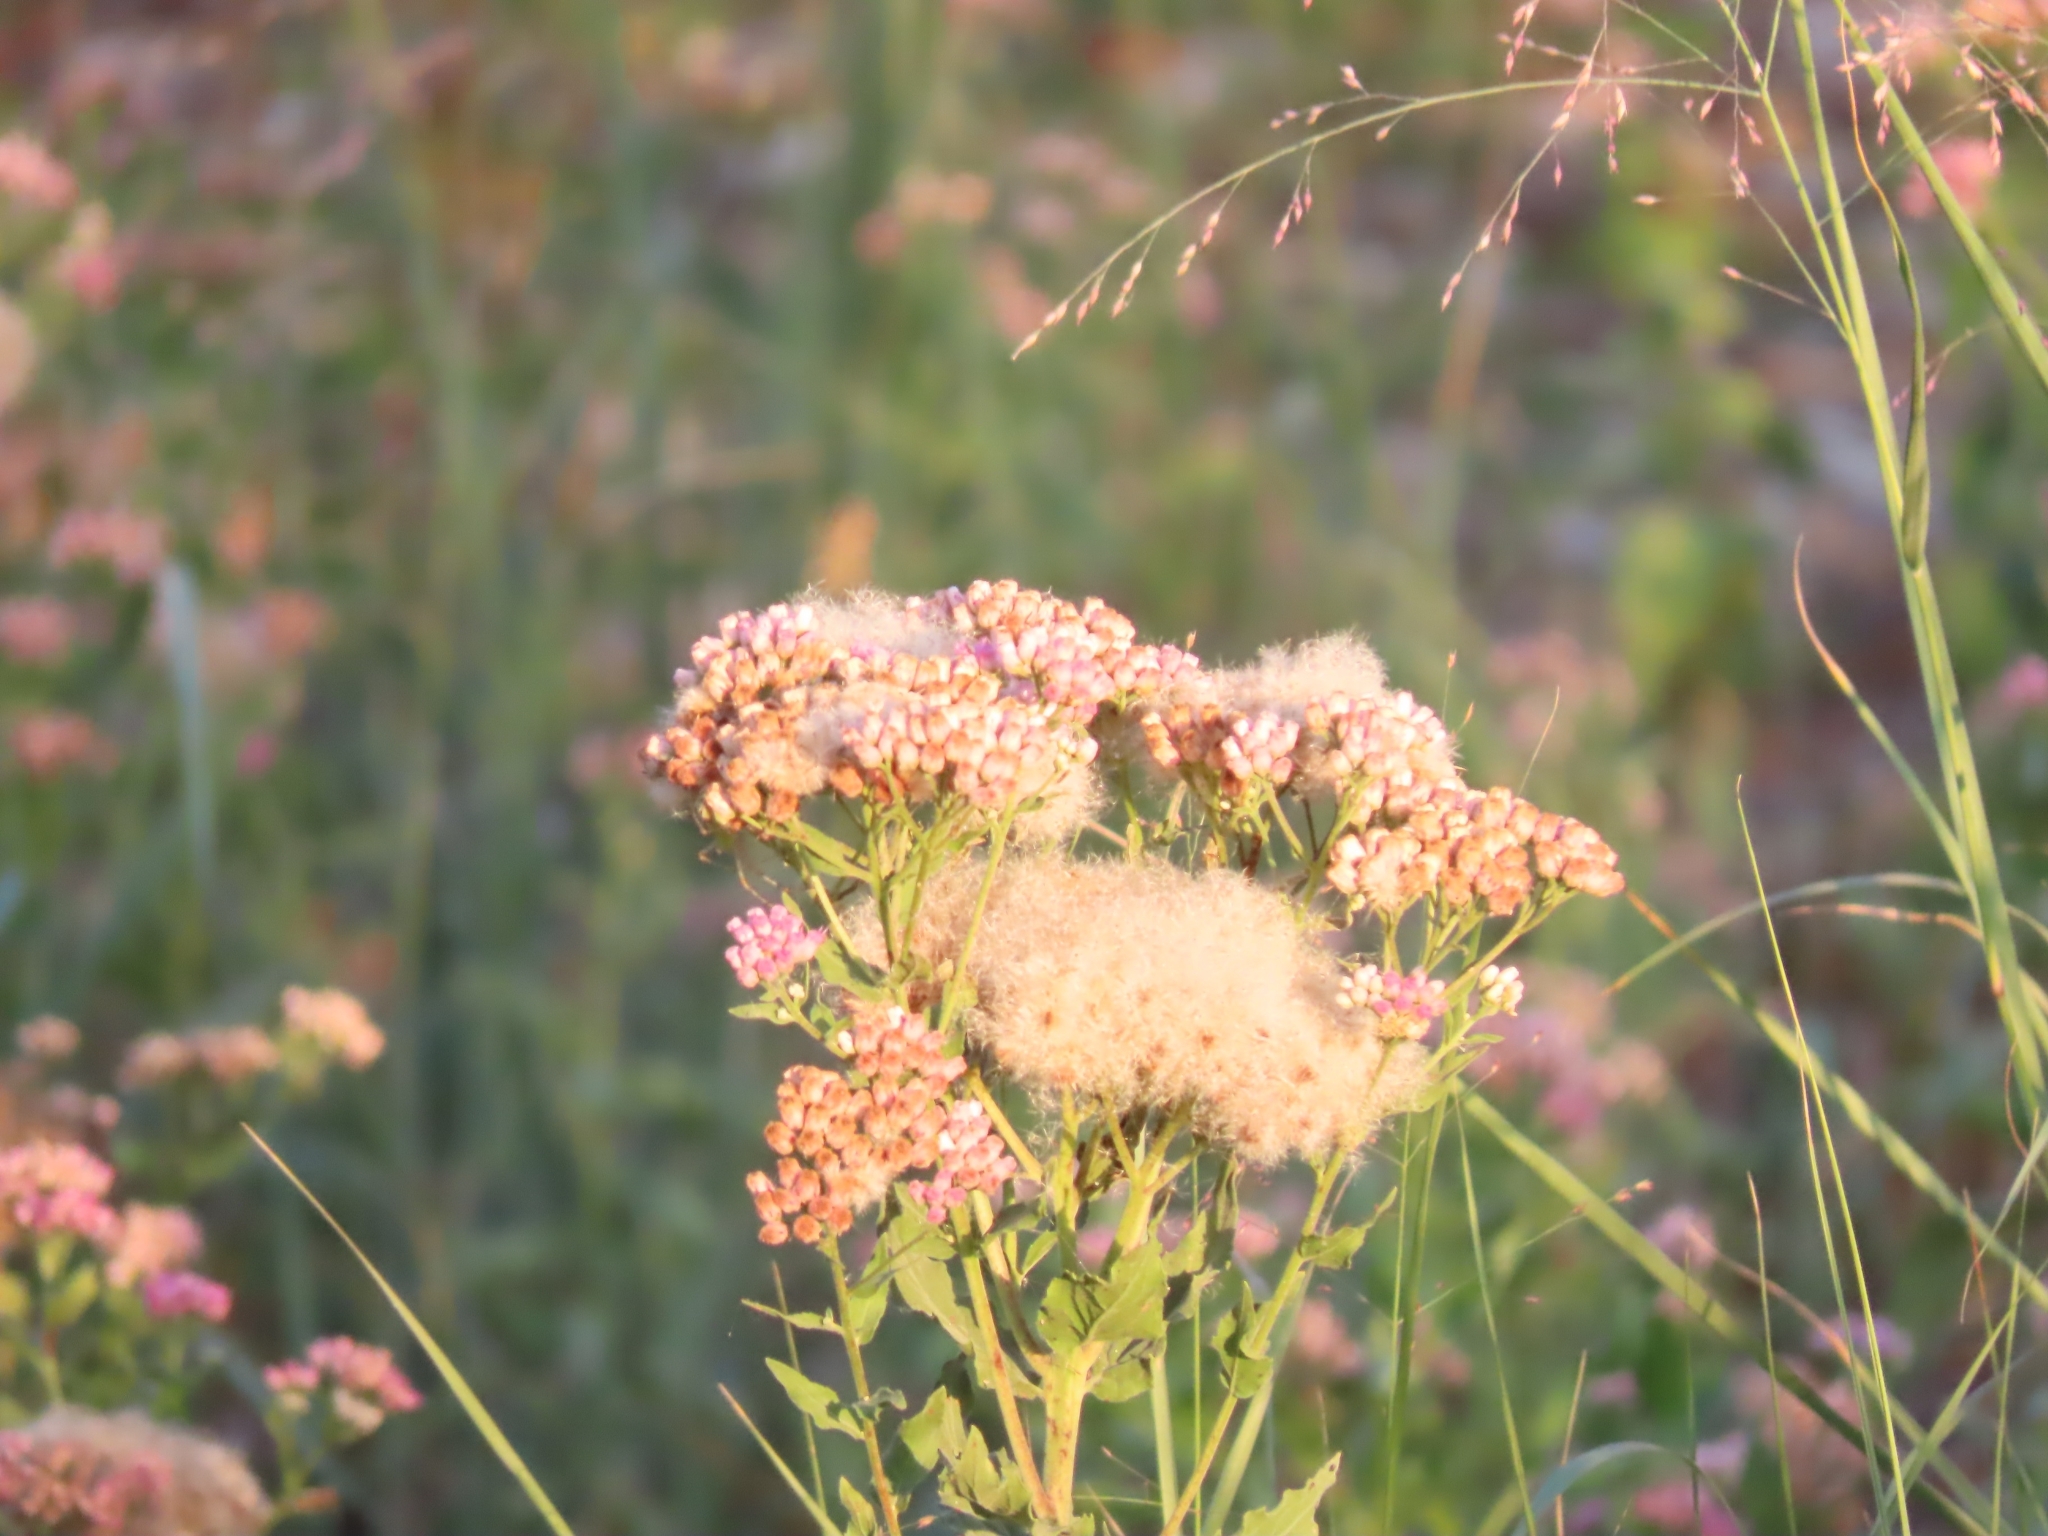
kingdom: Plantae
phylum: Tracheophyta
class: Magnoliopsida
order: Asterales
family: Asteraceae
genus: Pluchea
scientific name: Pluchea odorata
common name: Saltmarsh fleabane
